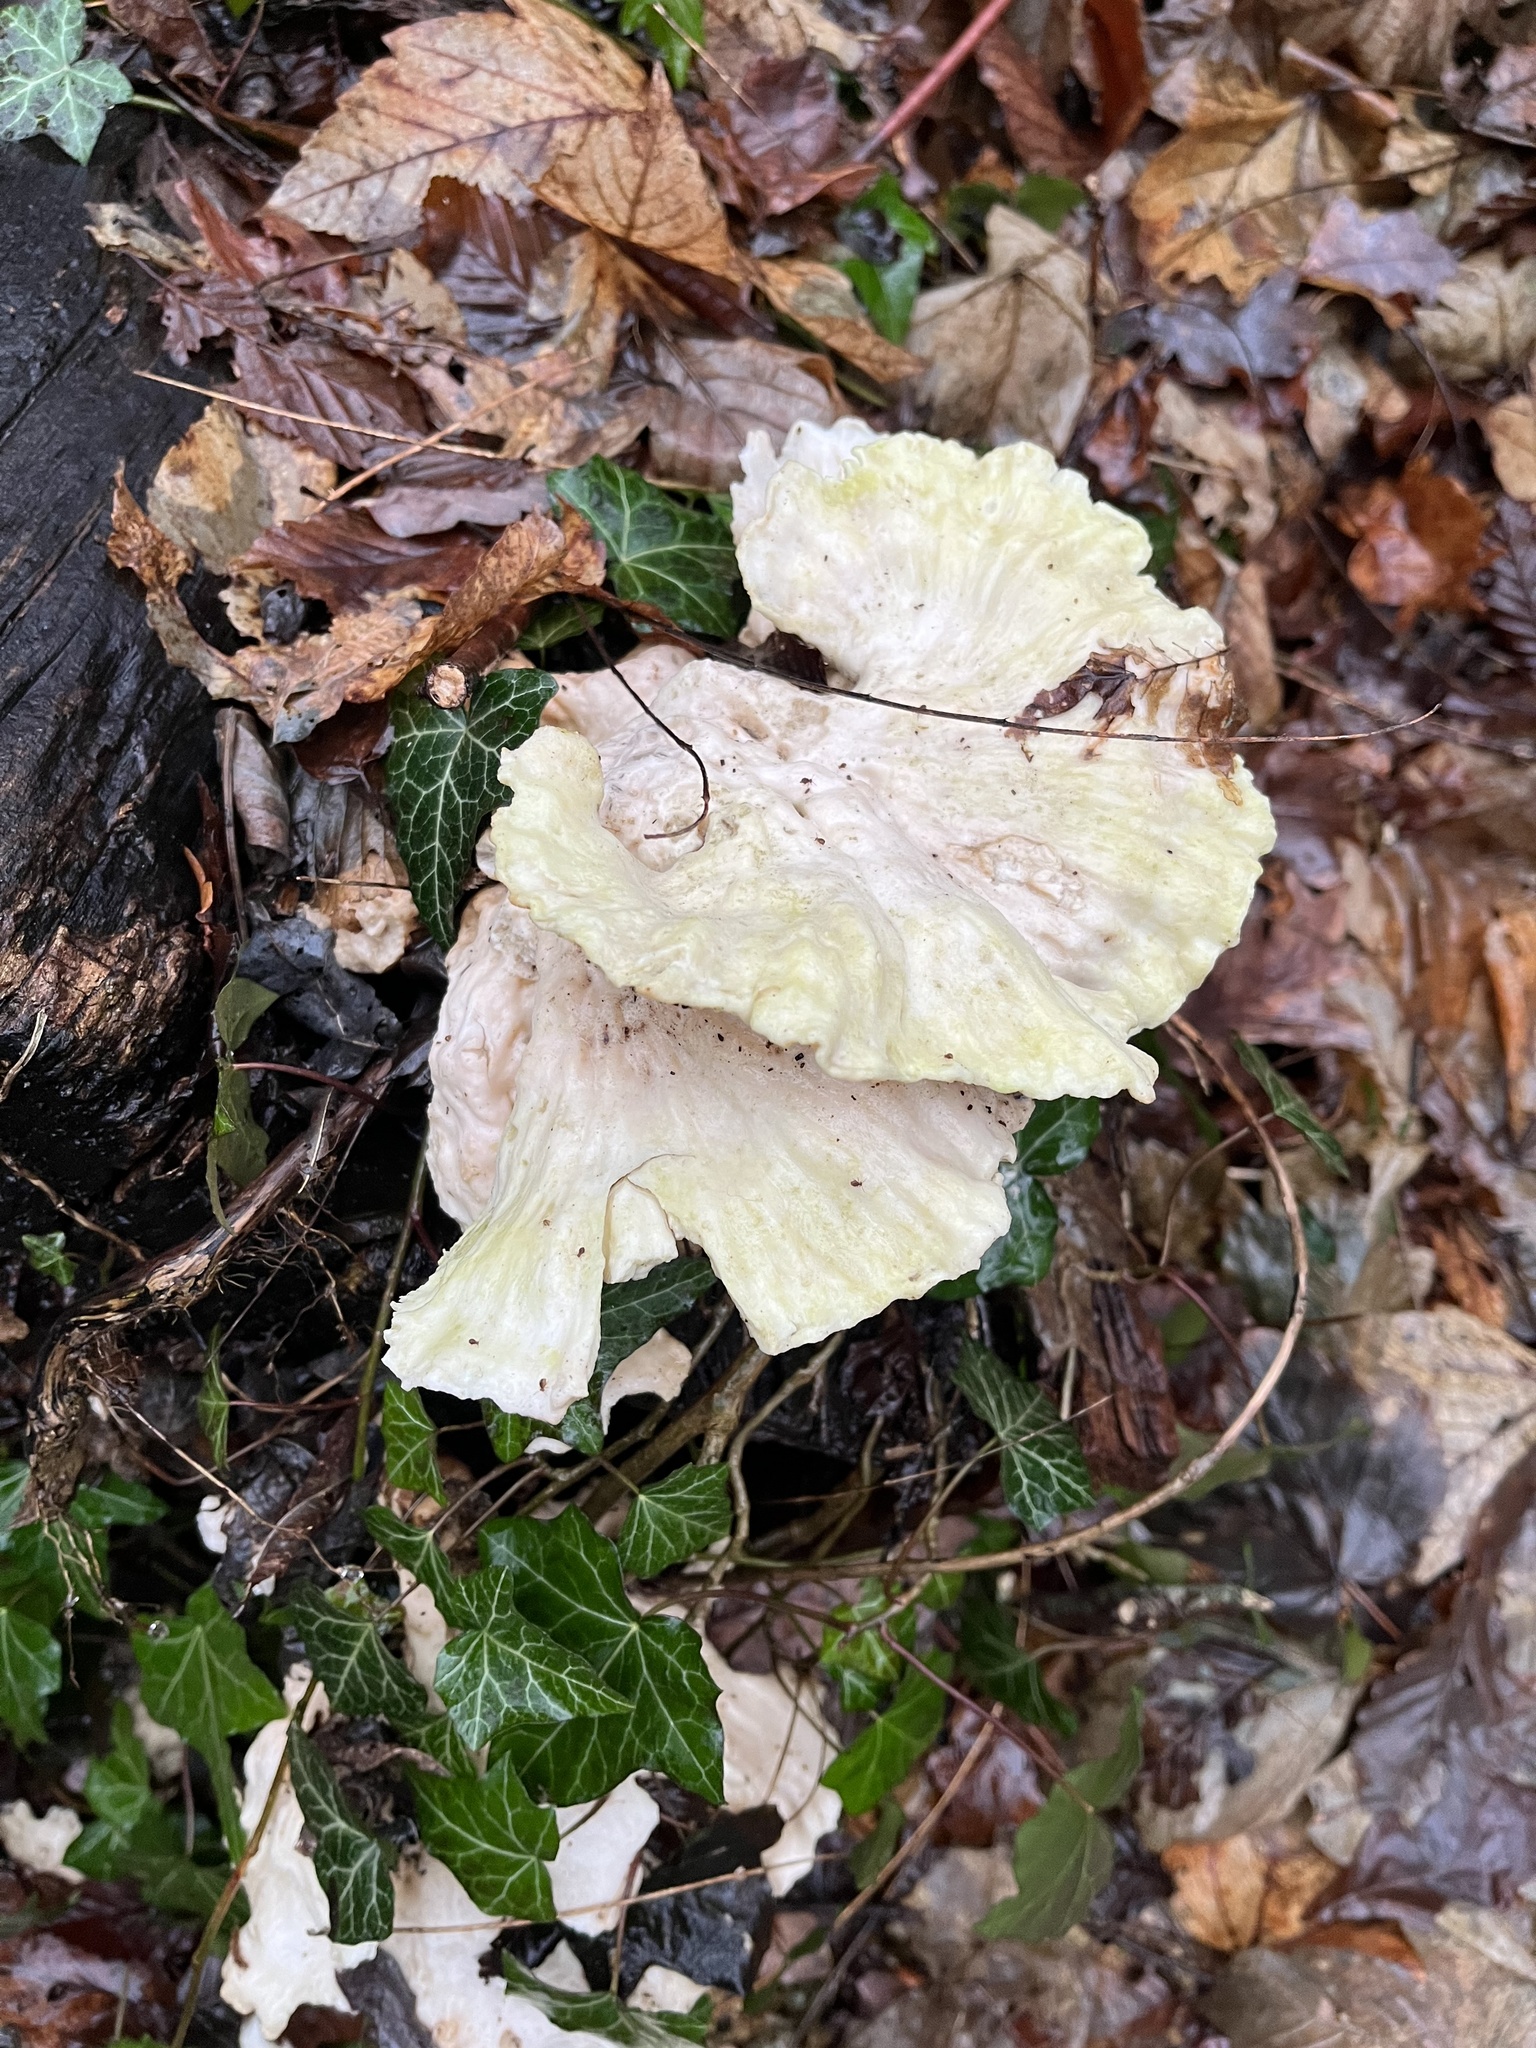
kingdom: Fungi
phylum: Basidiomycota
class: Agaricomycetes
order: Polyporales
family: Laetiporaceae
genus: Laetiporus
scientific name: Laetiporus sulphureus
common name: Chicken of the woods
